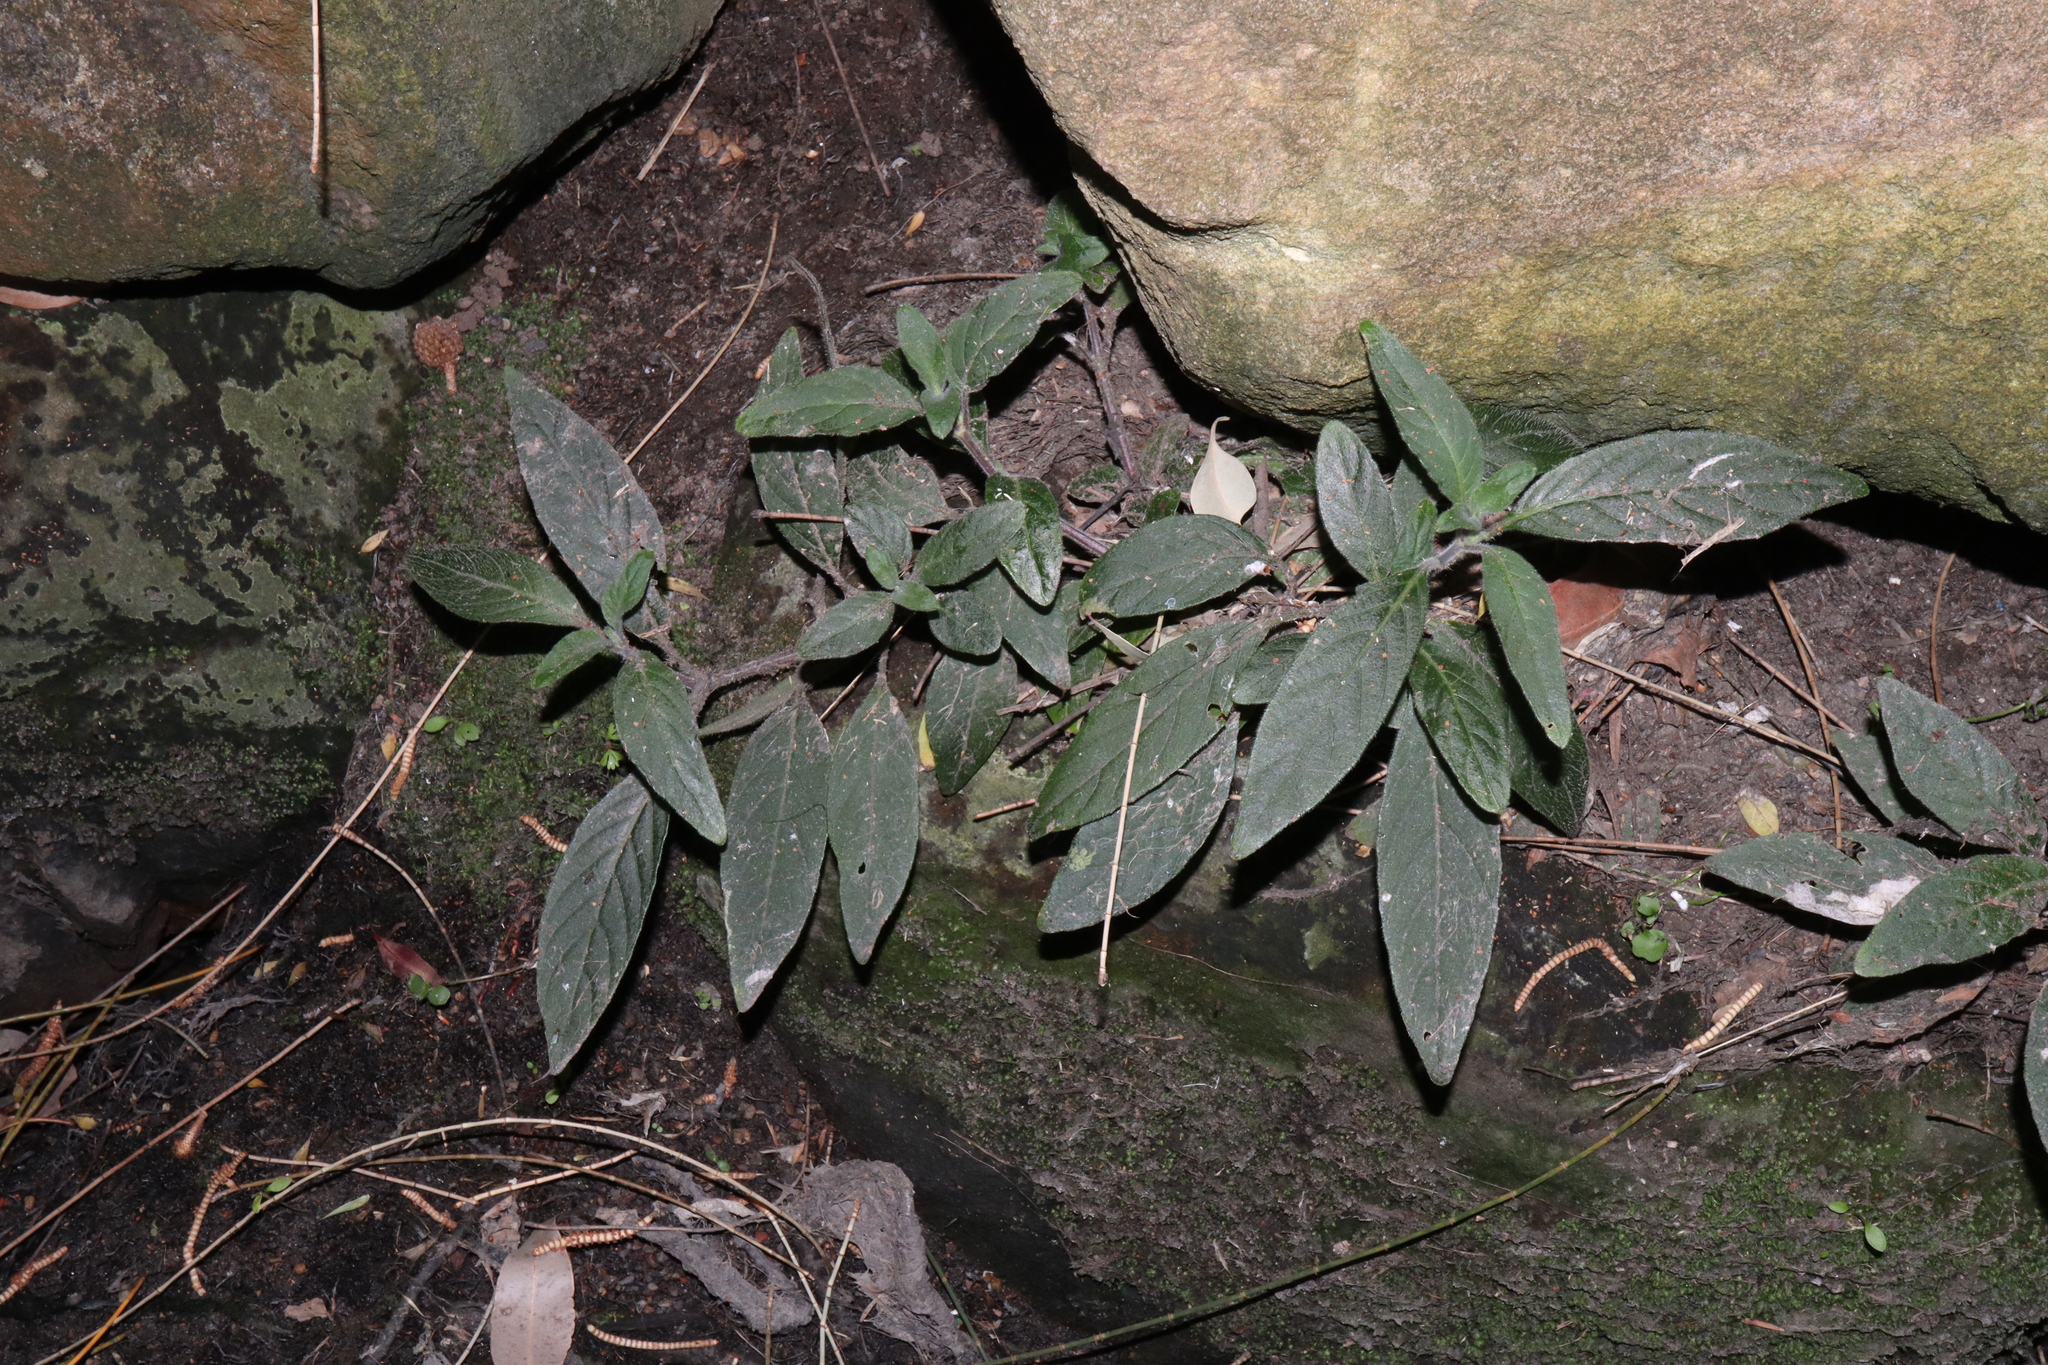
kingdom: Plantae
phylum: Tracheophyta
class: Magnoliopsida
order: Lamiales
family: Acanthaceae
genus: Ruellia
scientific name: Ruellia squarrosa
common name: Water bluebell
